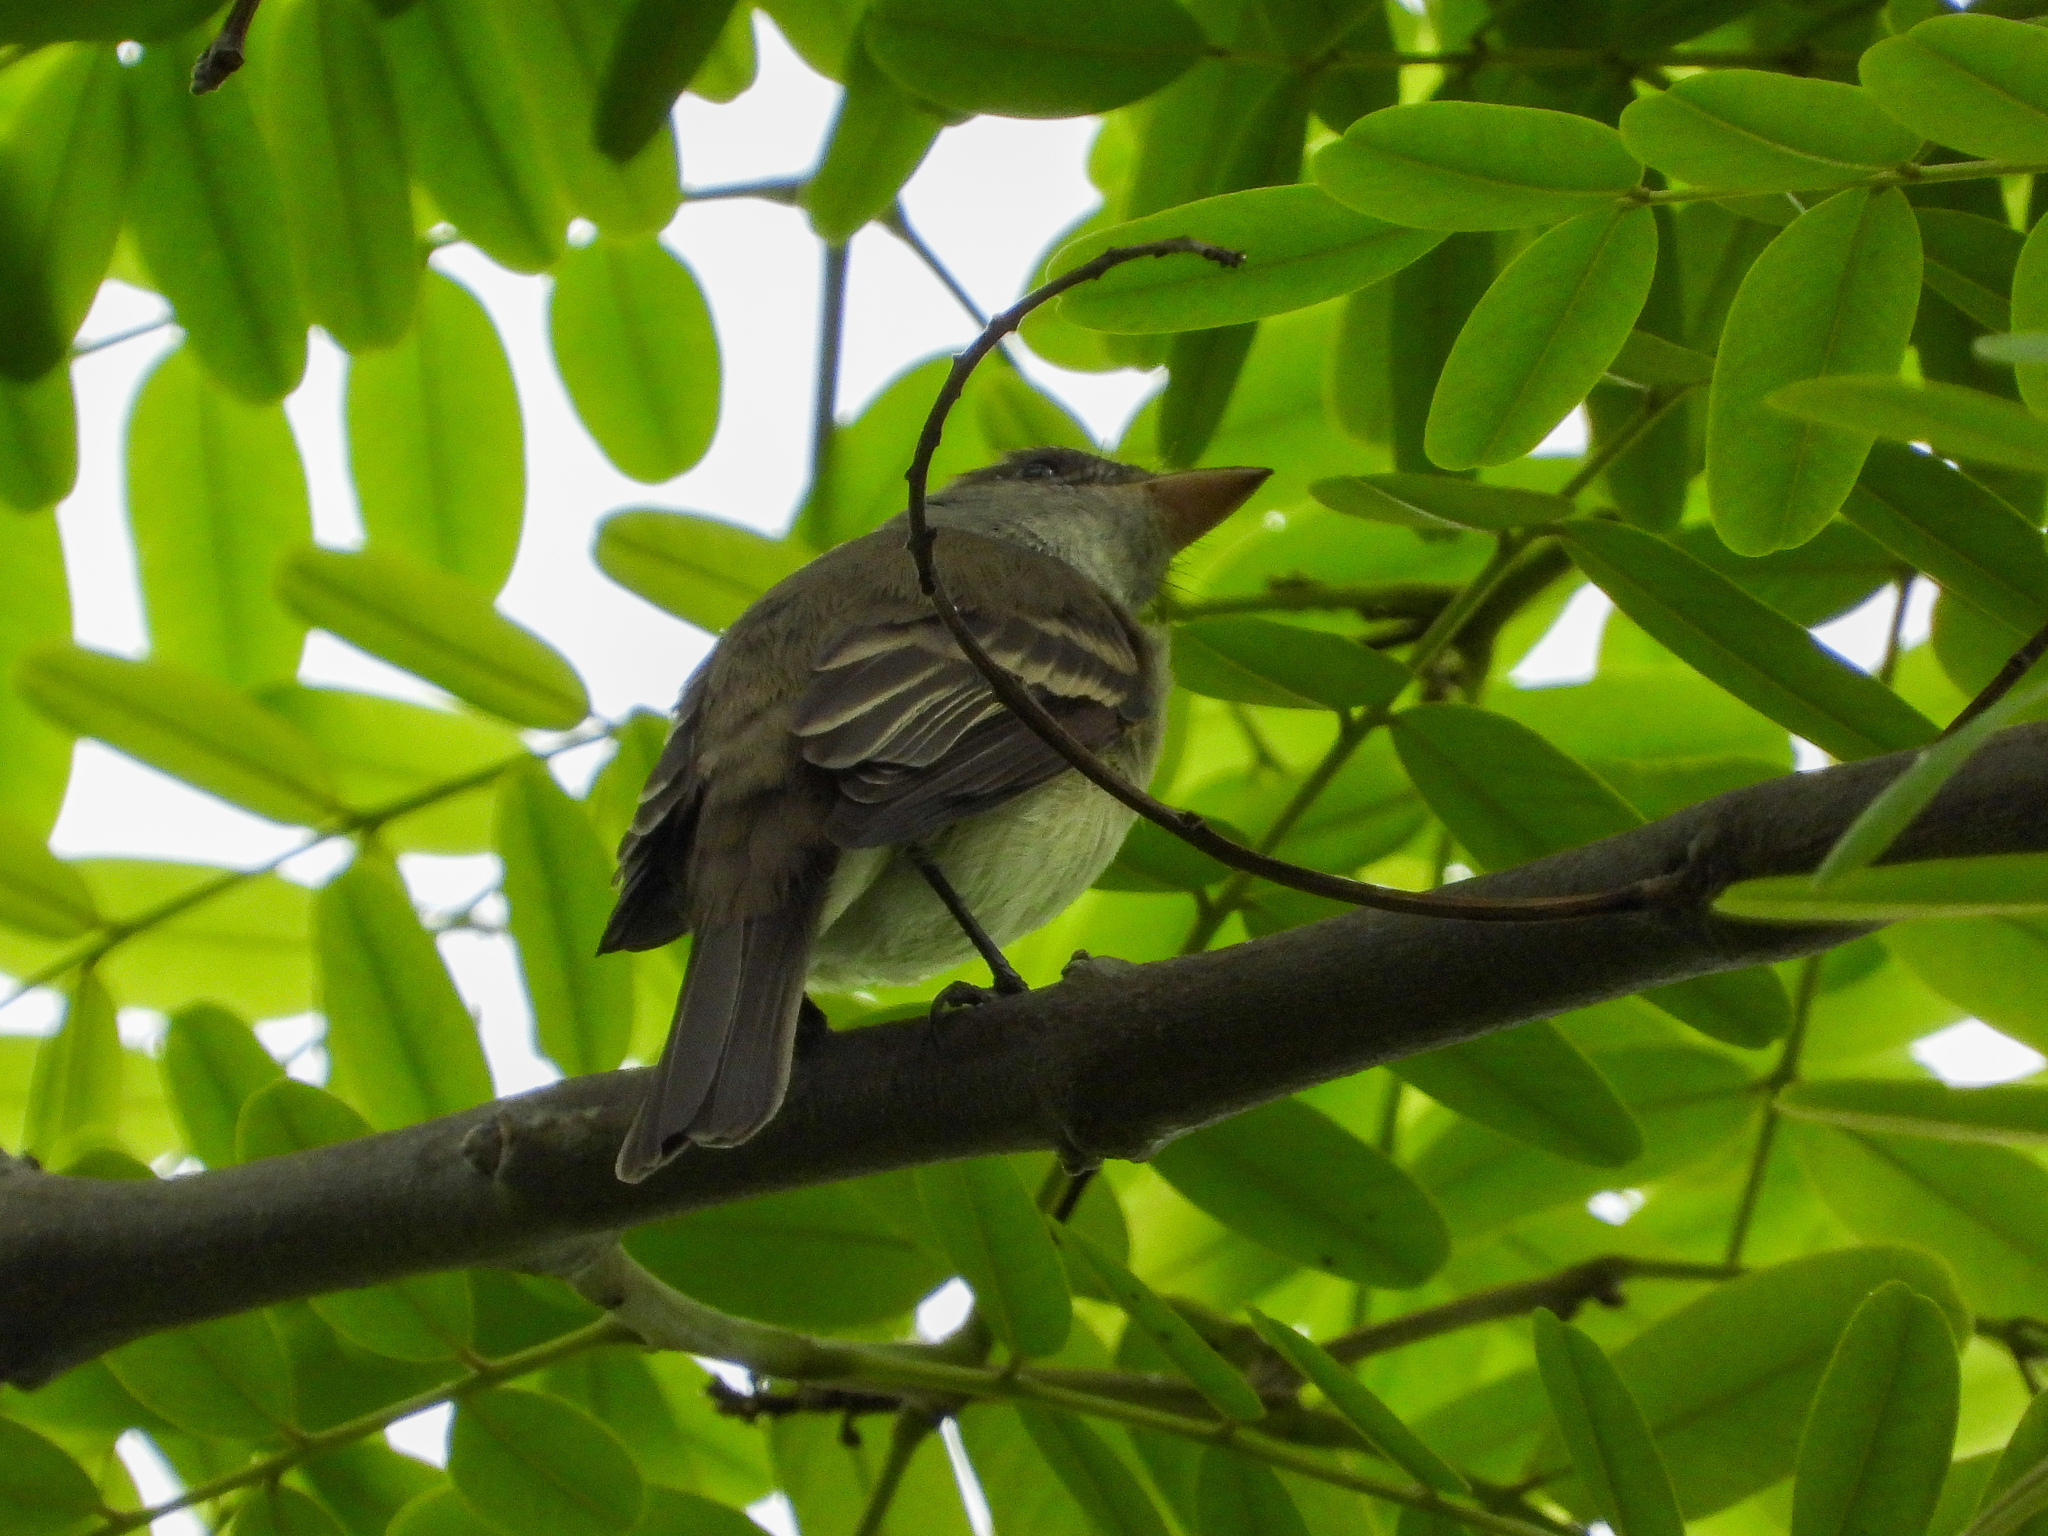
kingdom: Animalia
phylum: Chordata
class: Aves
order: Passeriformes
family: Tyrannidae
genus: Empidonax
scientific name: Empidonax traillii
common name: Willow flycatcher
